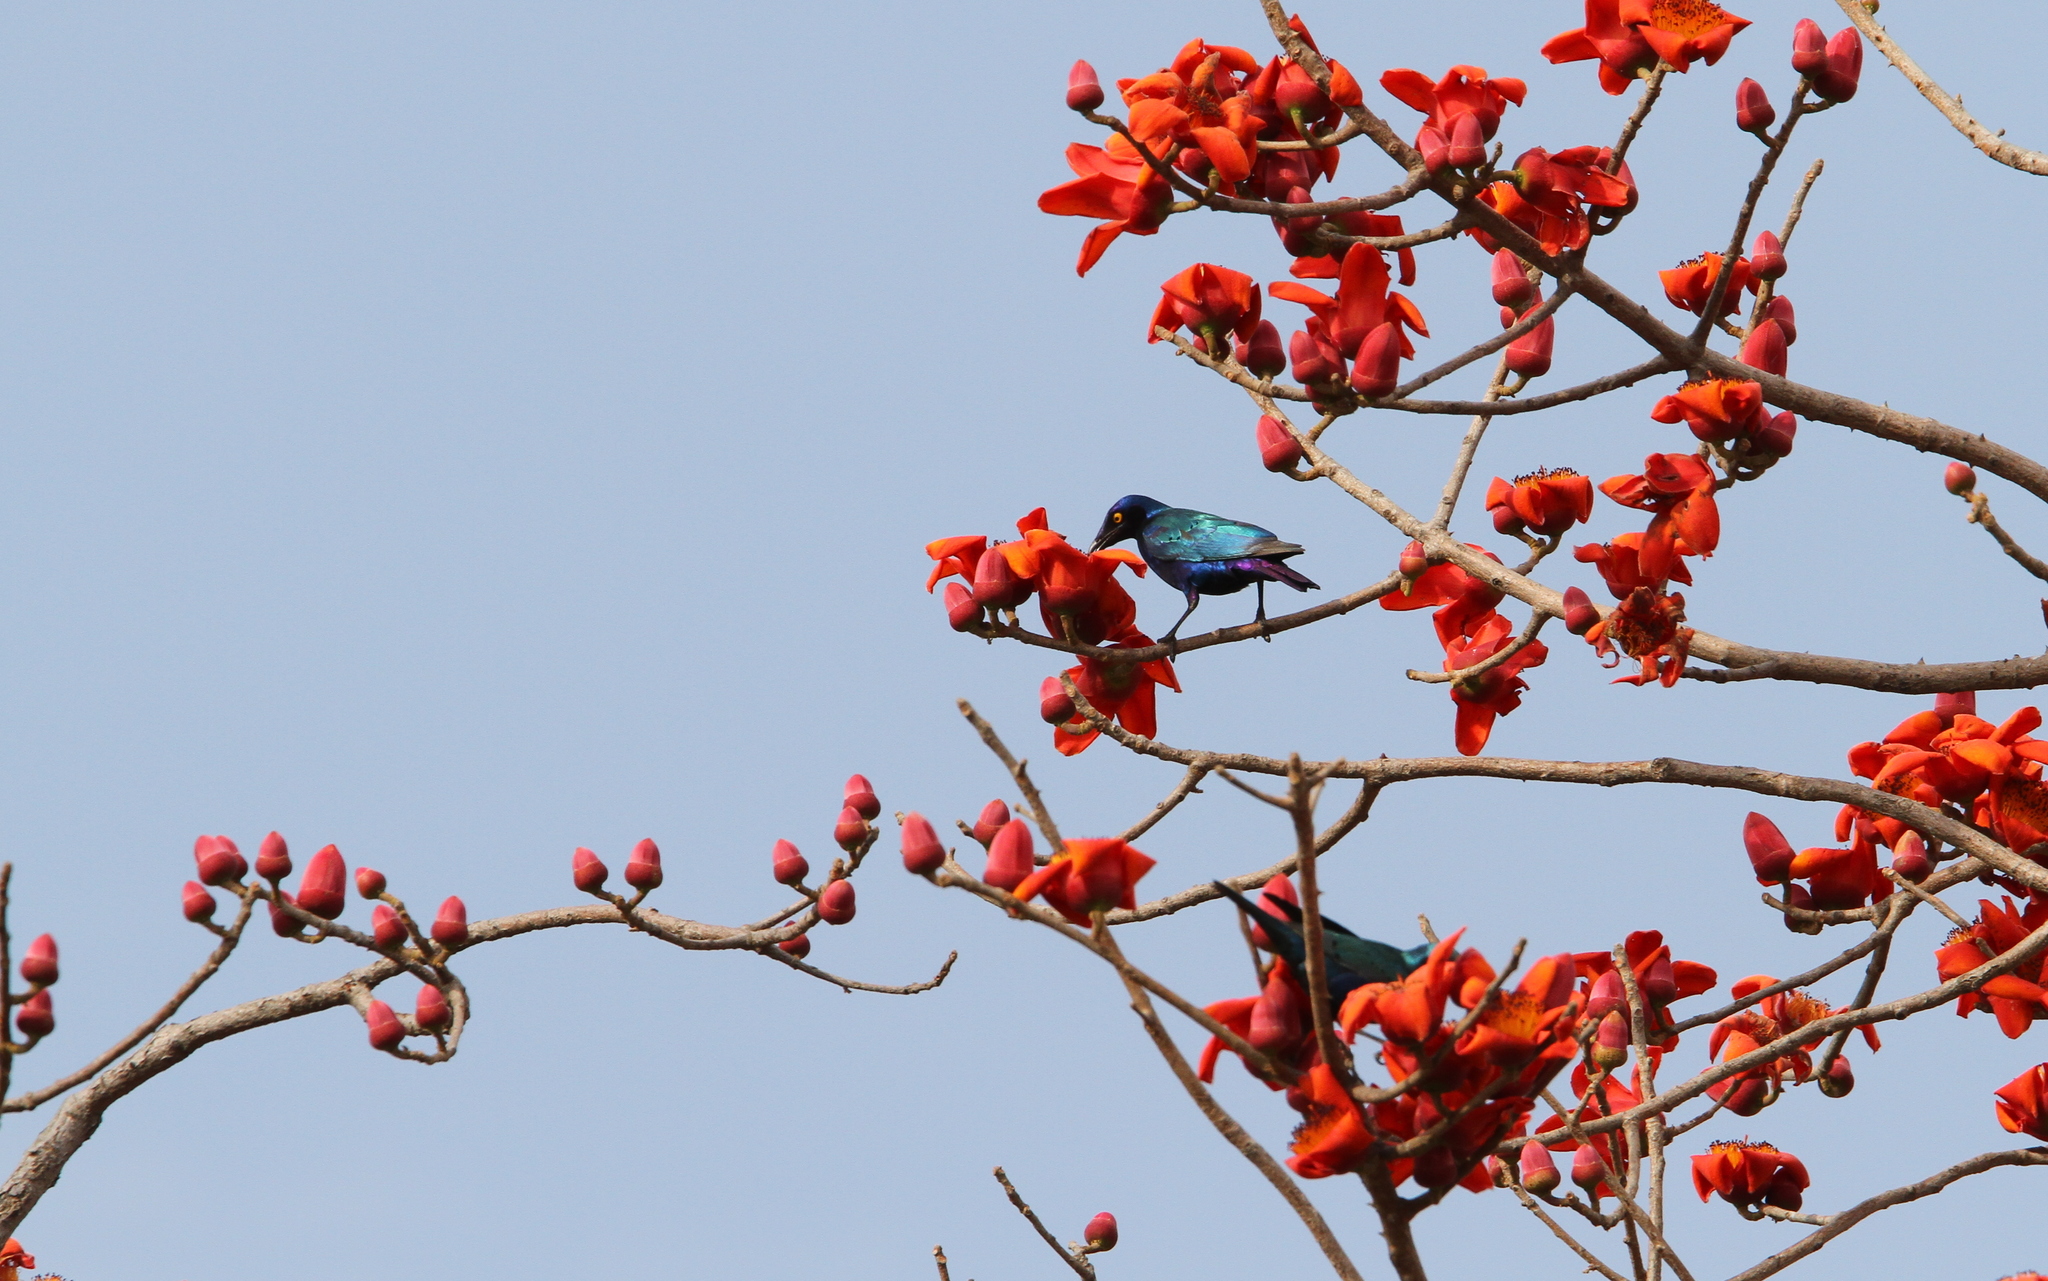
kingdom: Animalia
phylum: Chordata
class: Aves
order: Passeriformes
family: Sturnidae
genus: Lamprotornis
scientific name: Lamprotornis purpureus
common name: Purple starling
